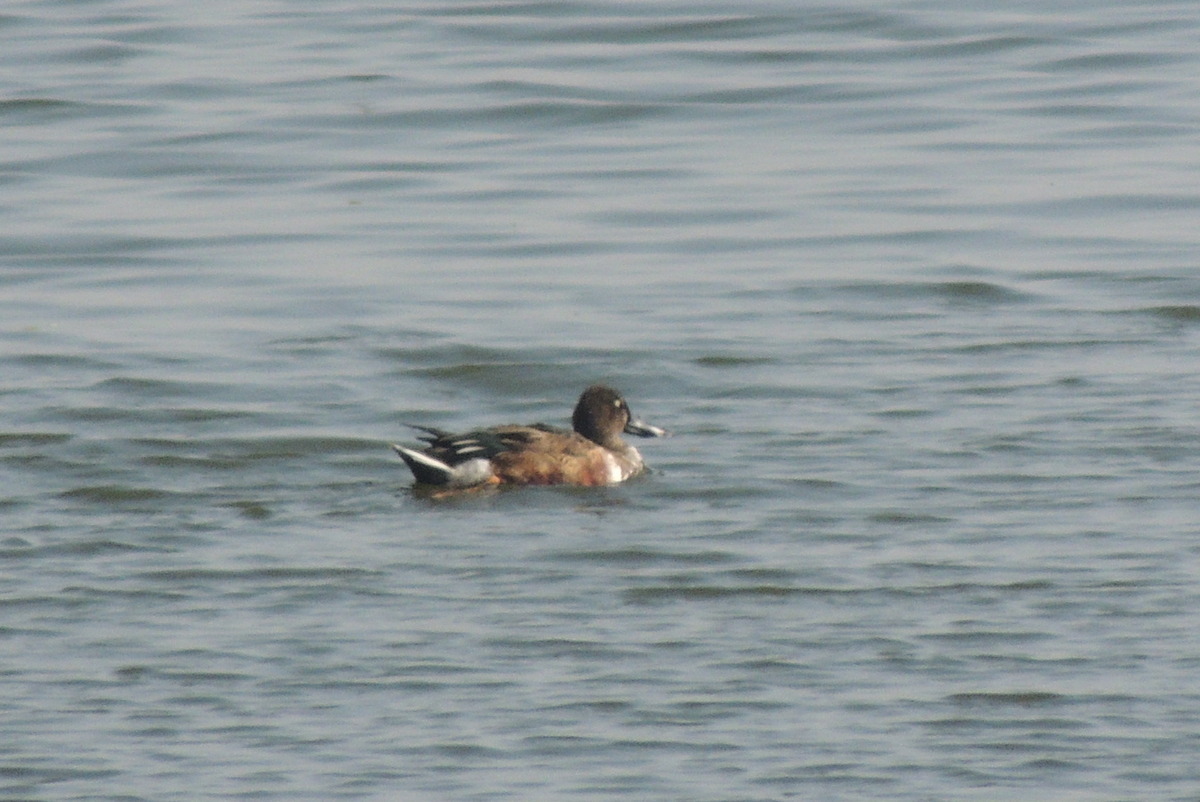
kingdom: Animalia
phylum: Chordata
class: Aves
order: Anseriformes
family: Anatidae
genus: Spatula
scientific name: Spatula clypeata
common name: Northern shoveler
